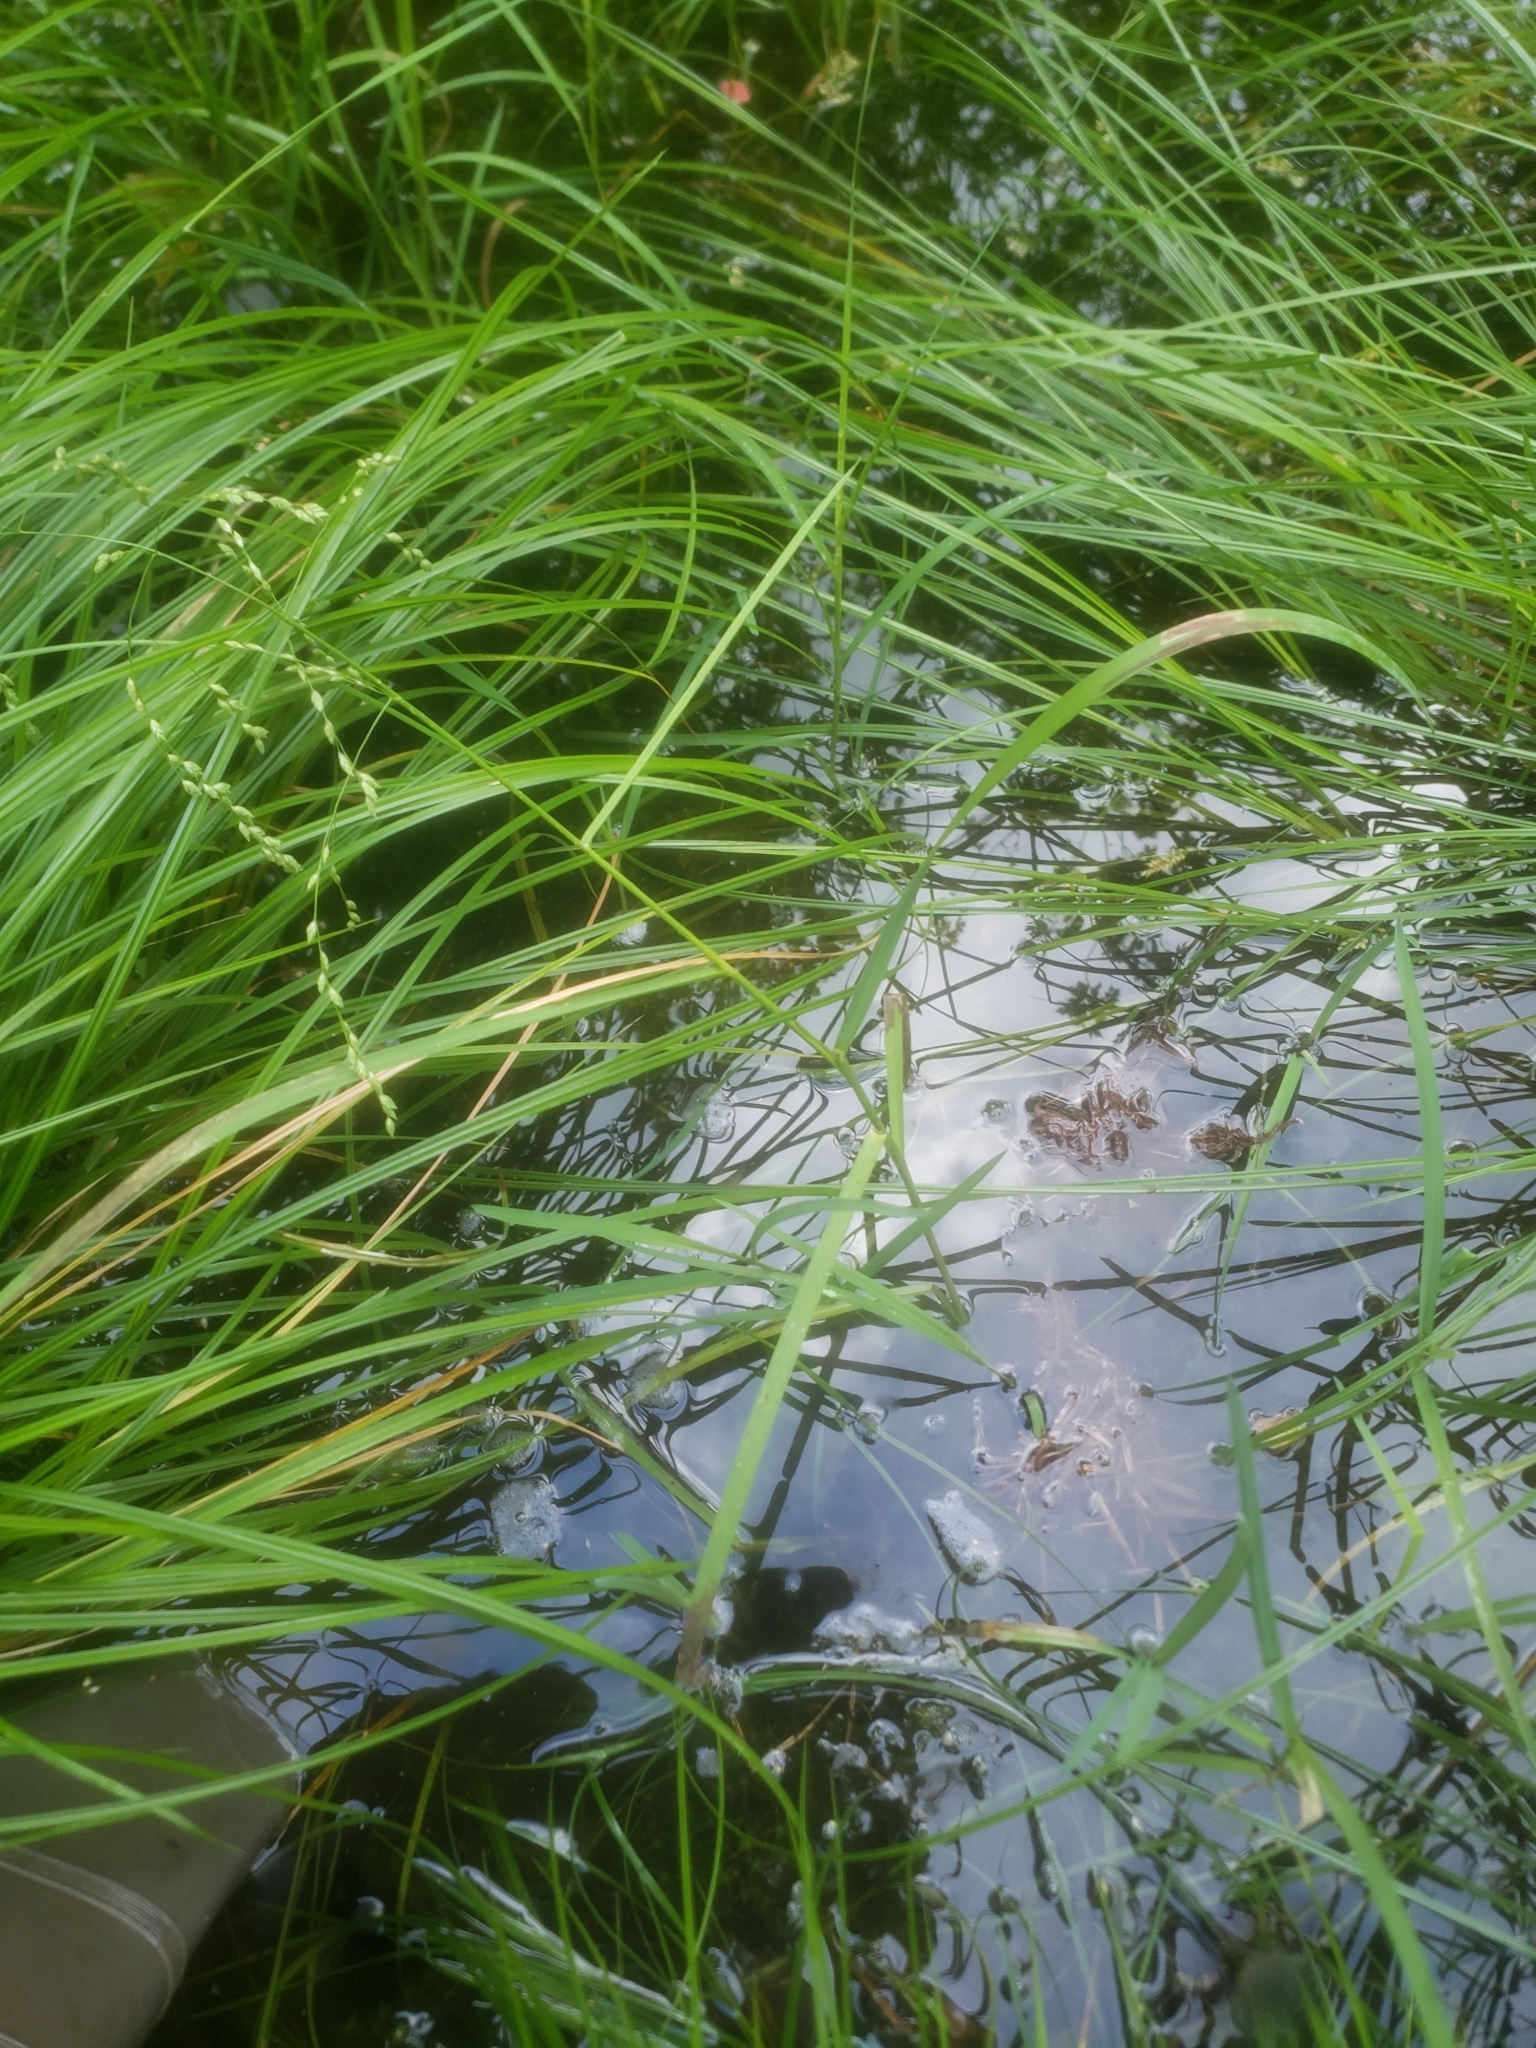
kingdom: Plantae
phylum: Tracheophyta
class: Liliopsida
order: Poales
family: Poaceae
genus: Glyceria
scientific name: Glyceria canadensis
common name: Canada mannagrass
